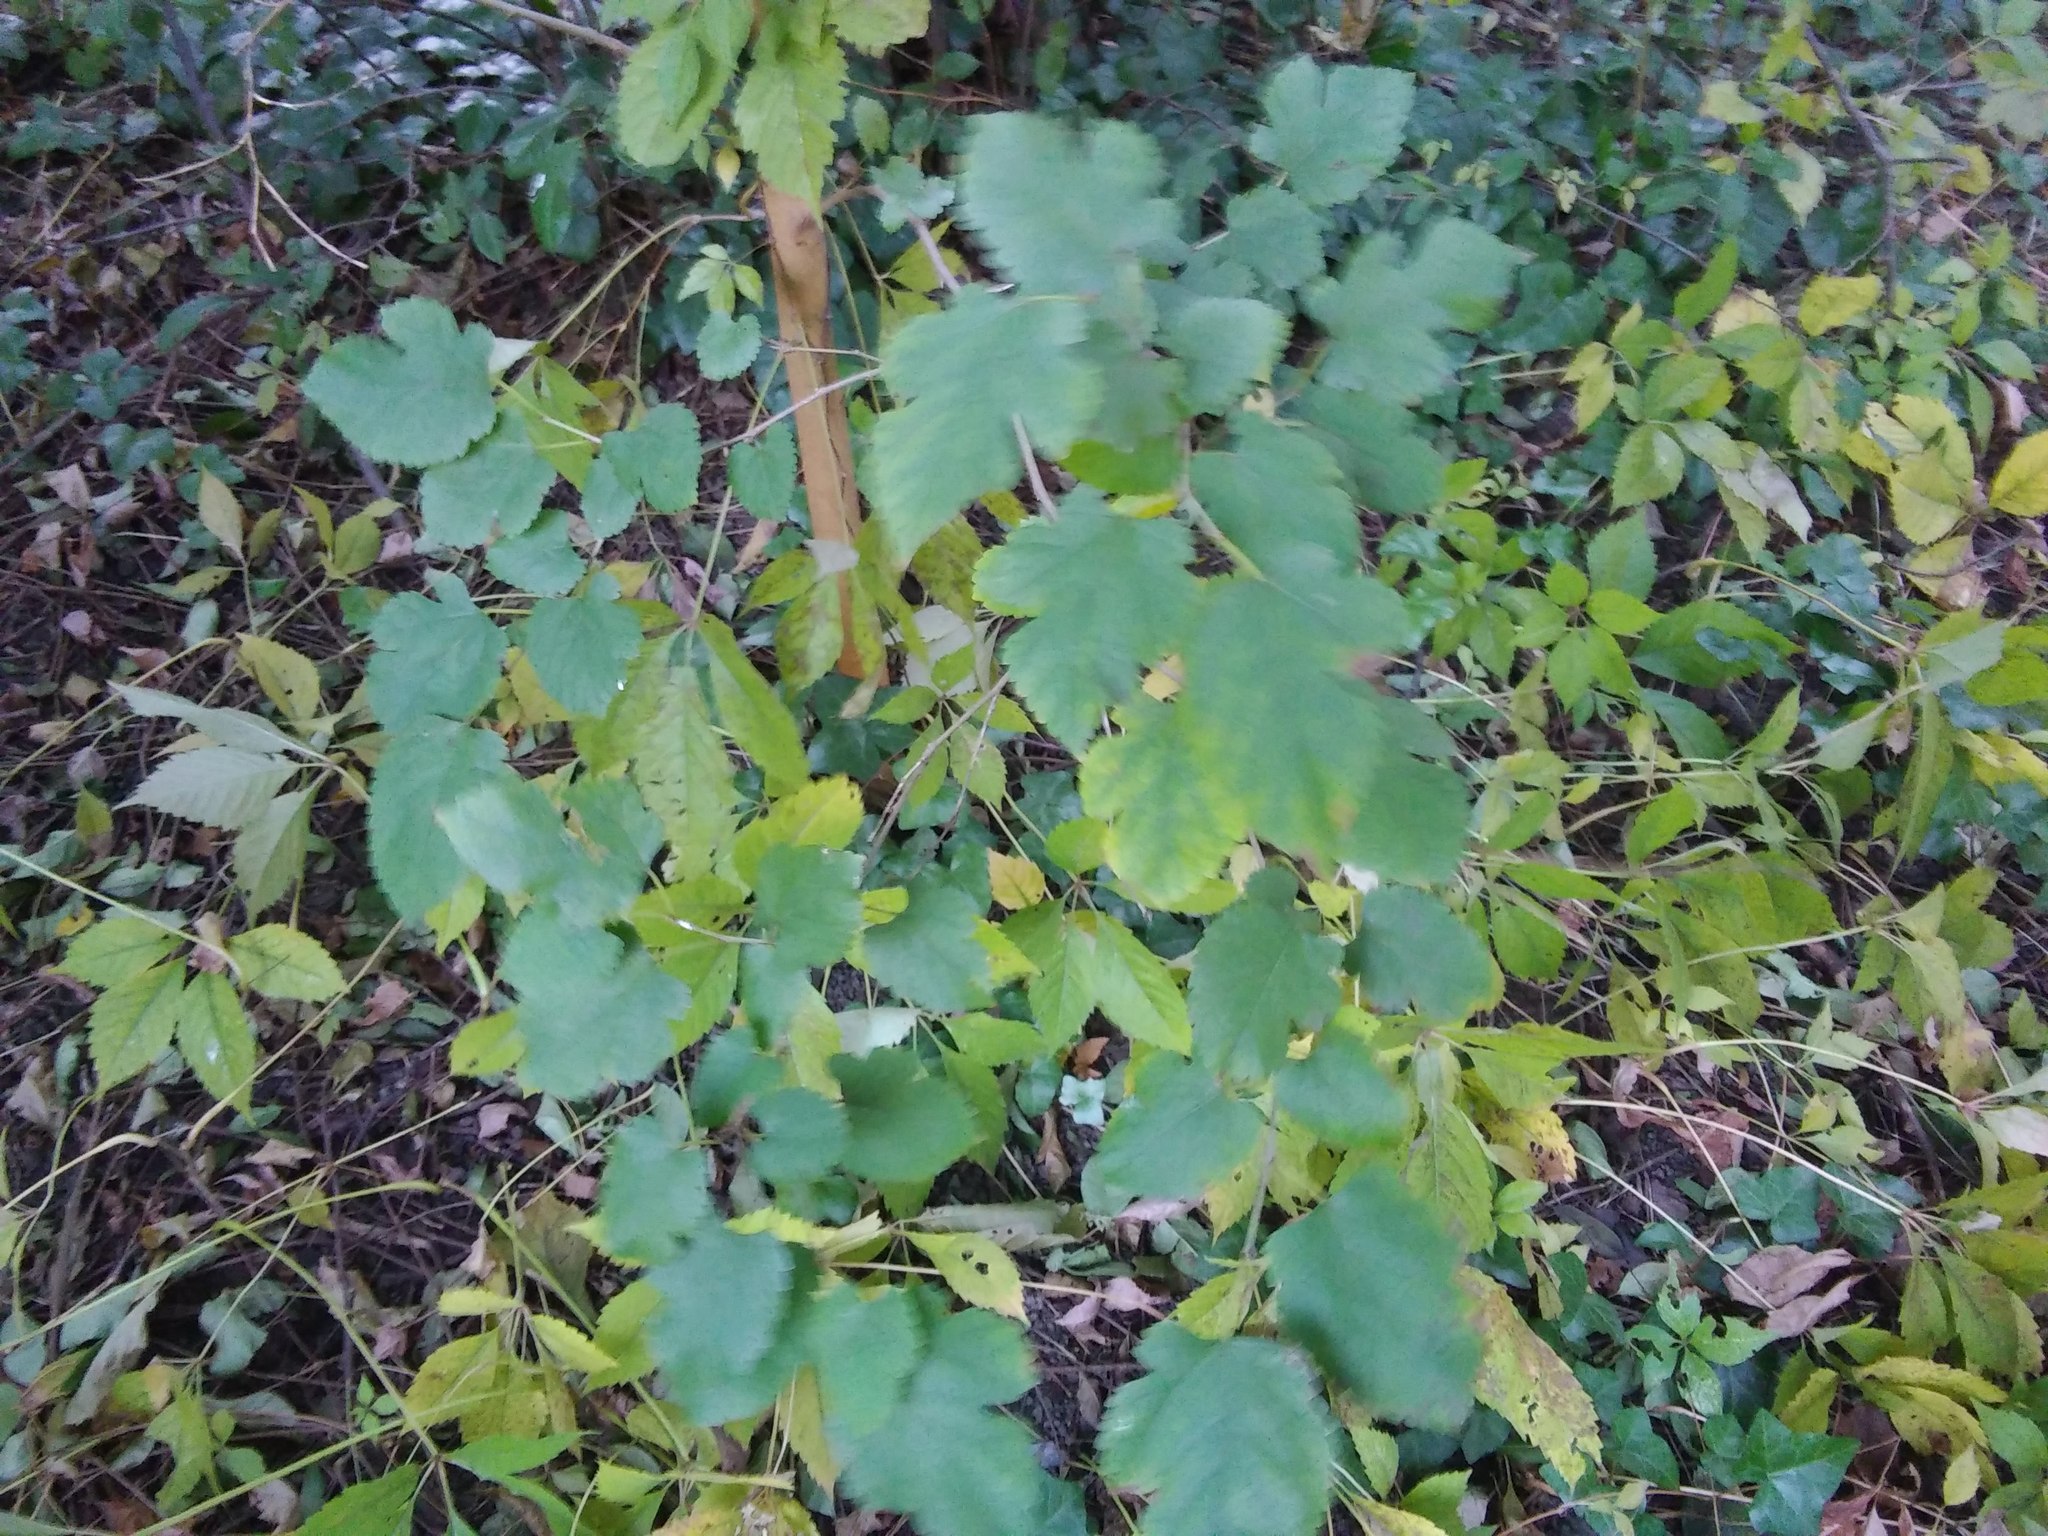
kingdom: Plantae
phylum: Tracheophyta
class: Magnoliopsida
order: Rosales
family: Moraceae
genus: Morus
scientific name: Morus alba
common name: White mulberry
